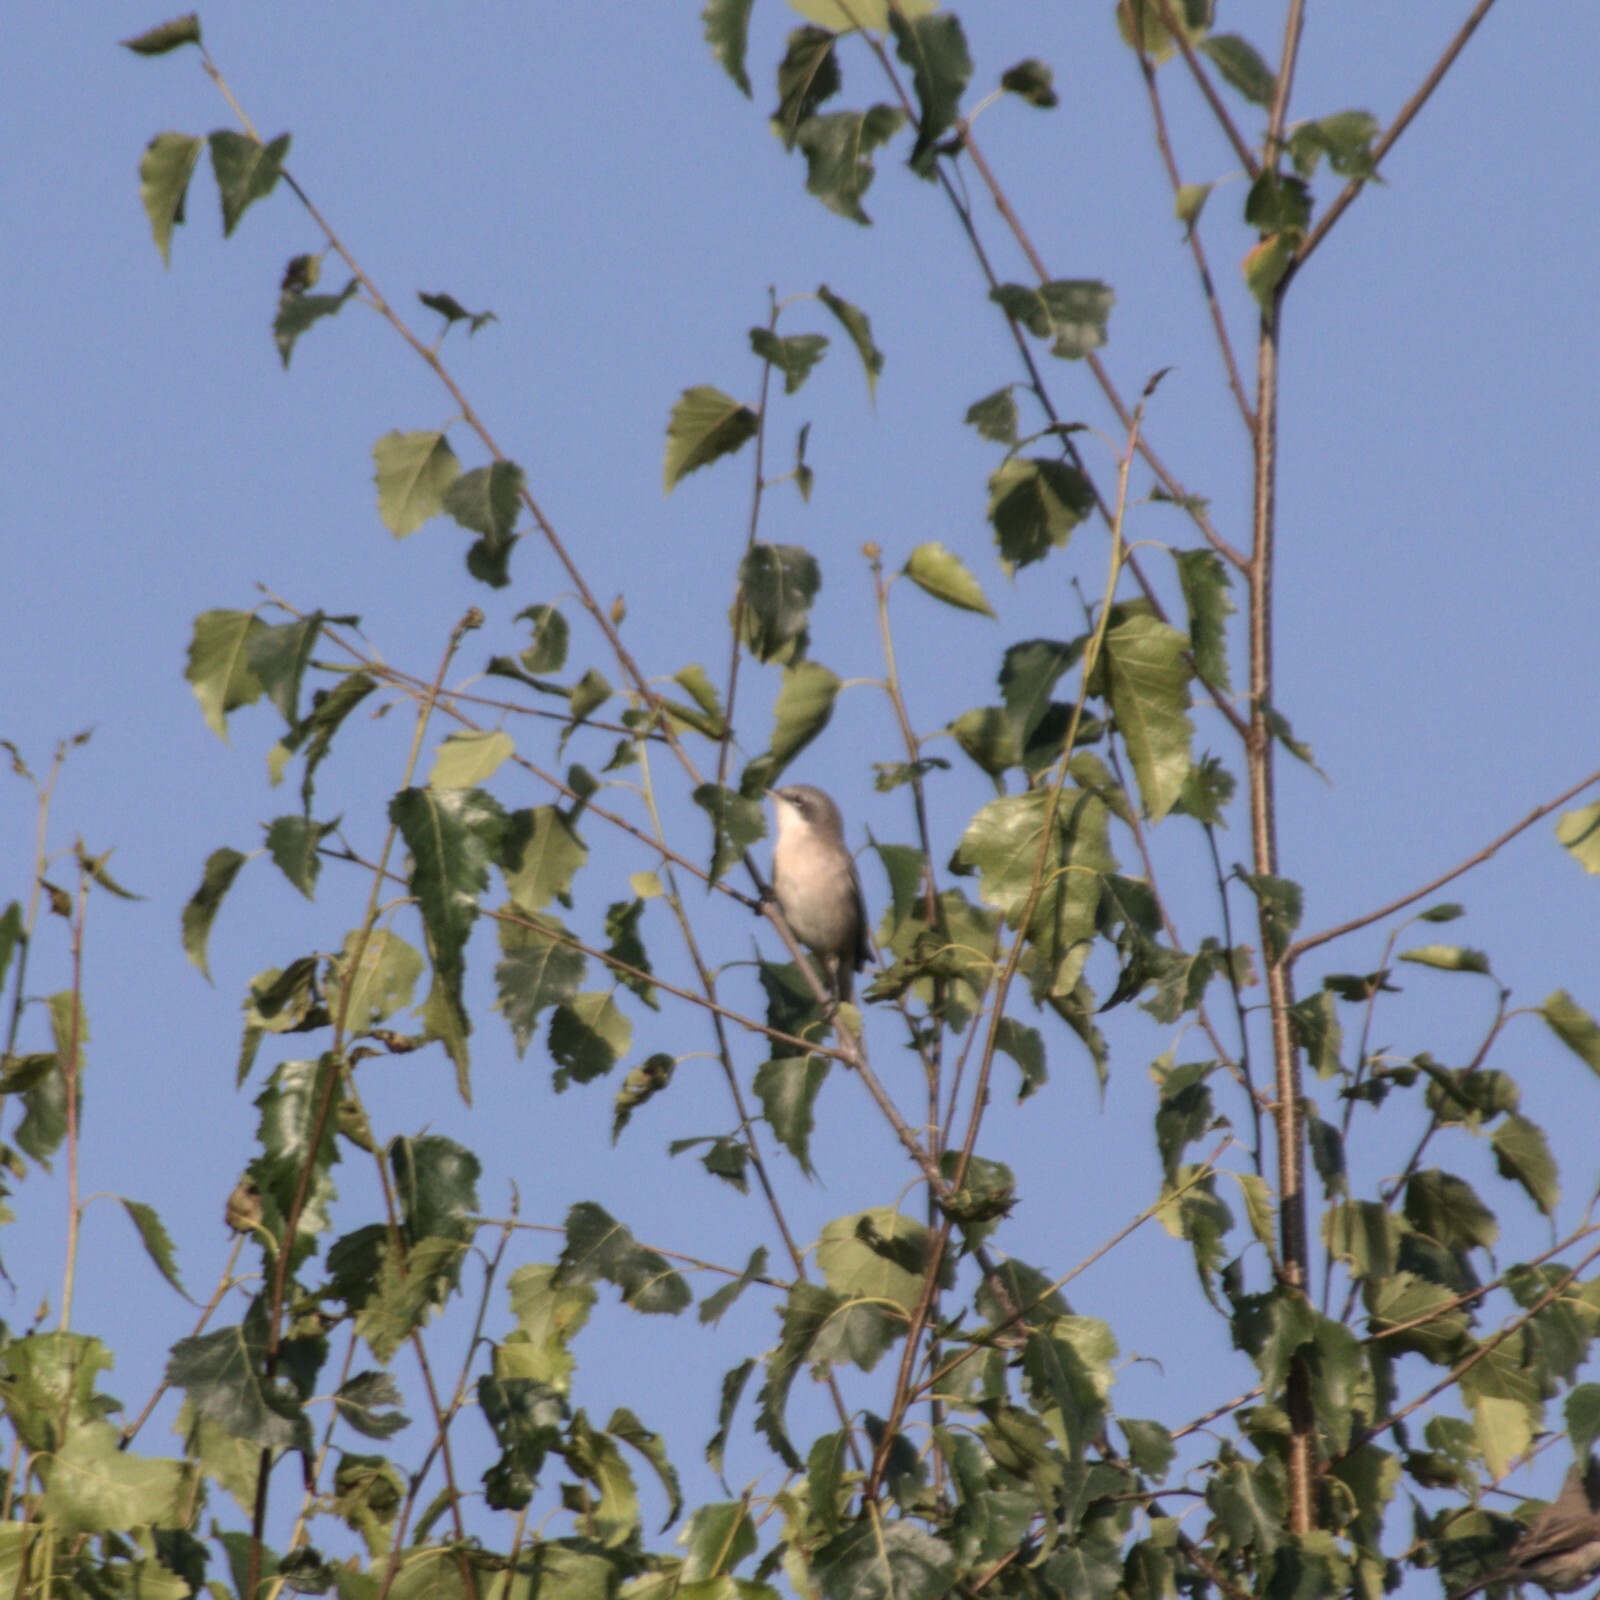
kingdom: Animalia
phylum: Chordata
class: Aves
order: Passeriformes
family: Sylviidae
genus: Sylvia
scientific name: Sylvia curruca
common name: Lesser whitethroat
